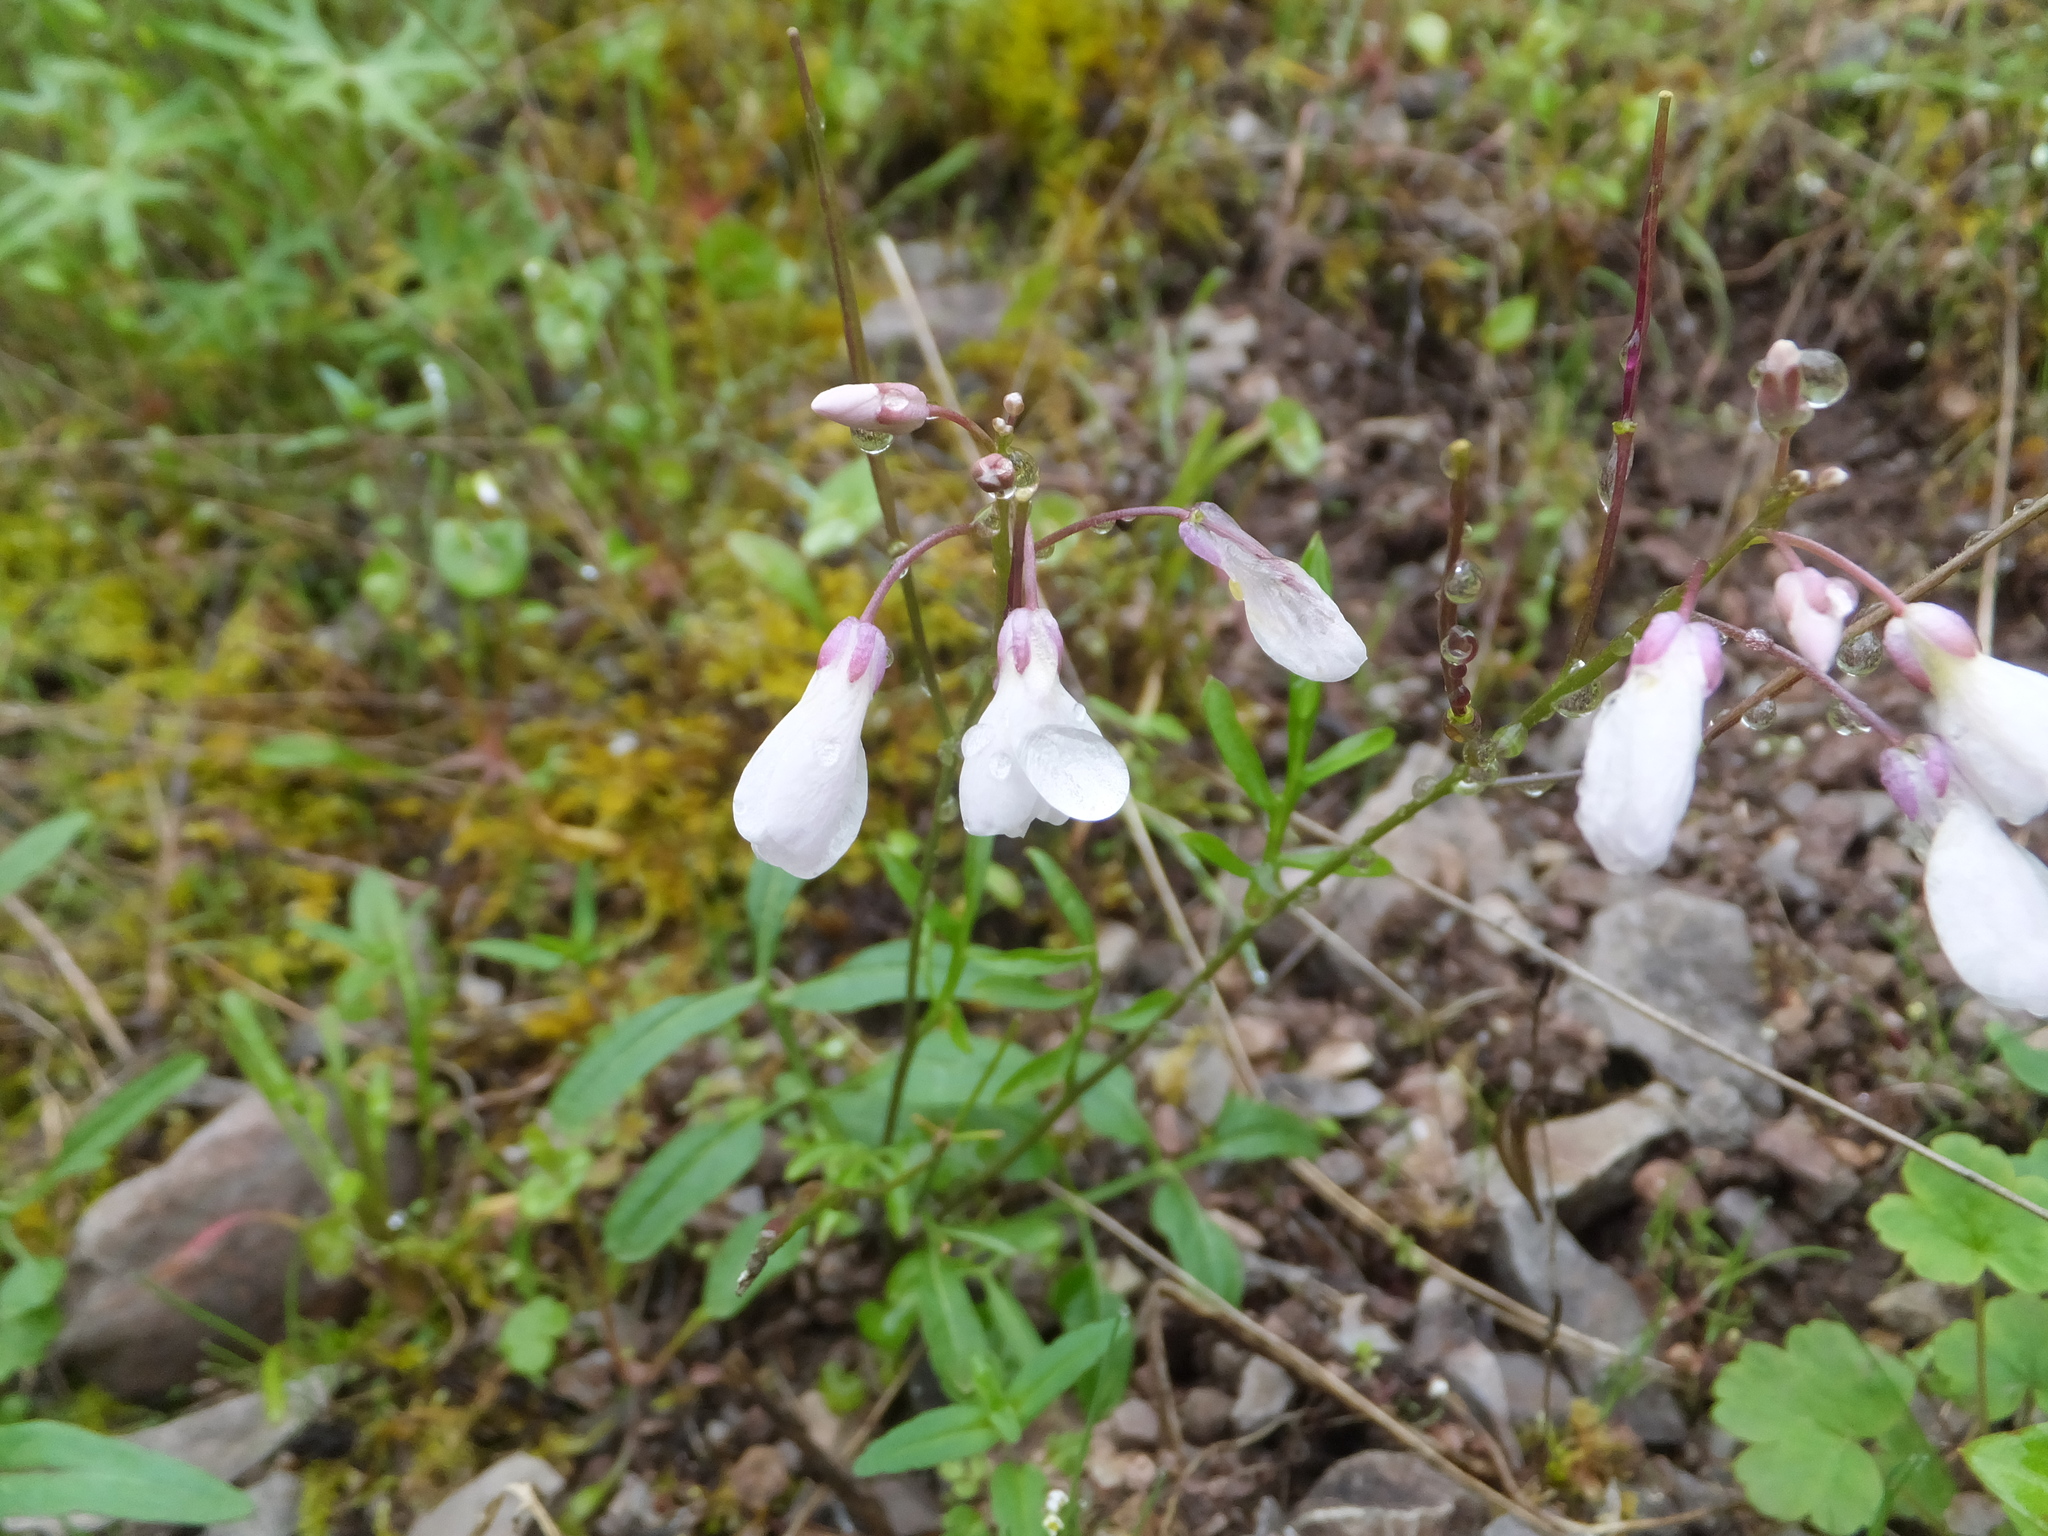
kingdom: Plantae
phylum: Tracheophyta
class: Magnoliopsida
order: Brassicales
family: Brassicaceae
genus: Cardamine
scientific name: Cardamine californica
